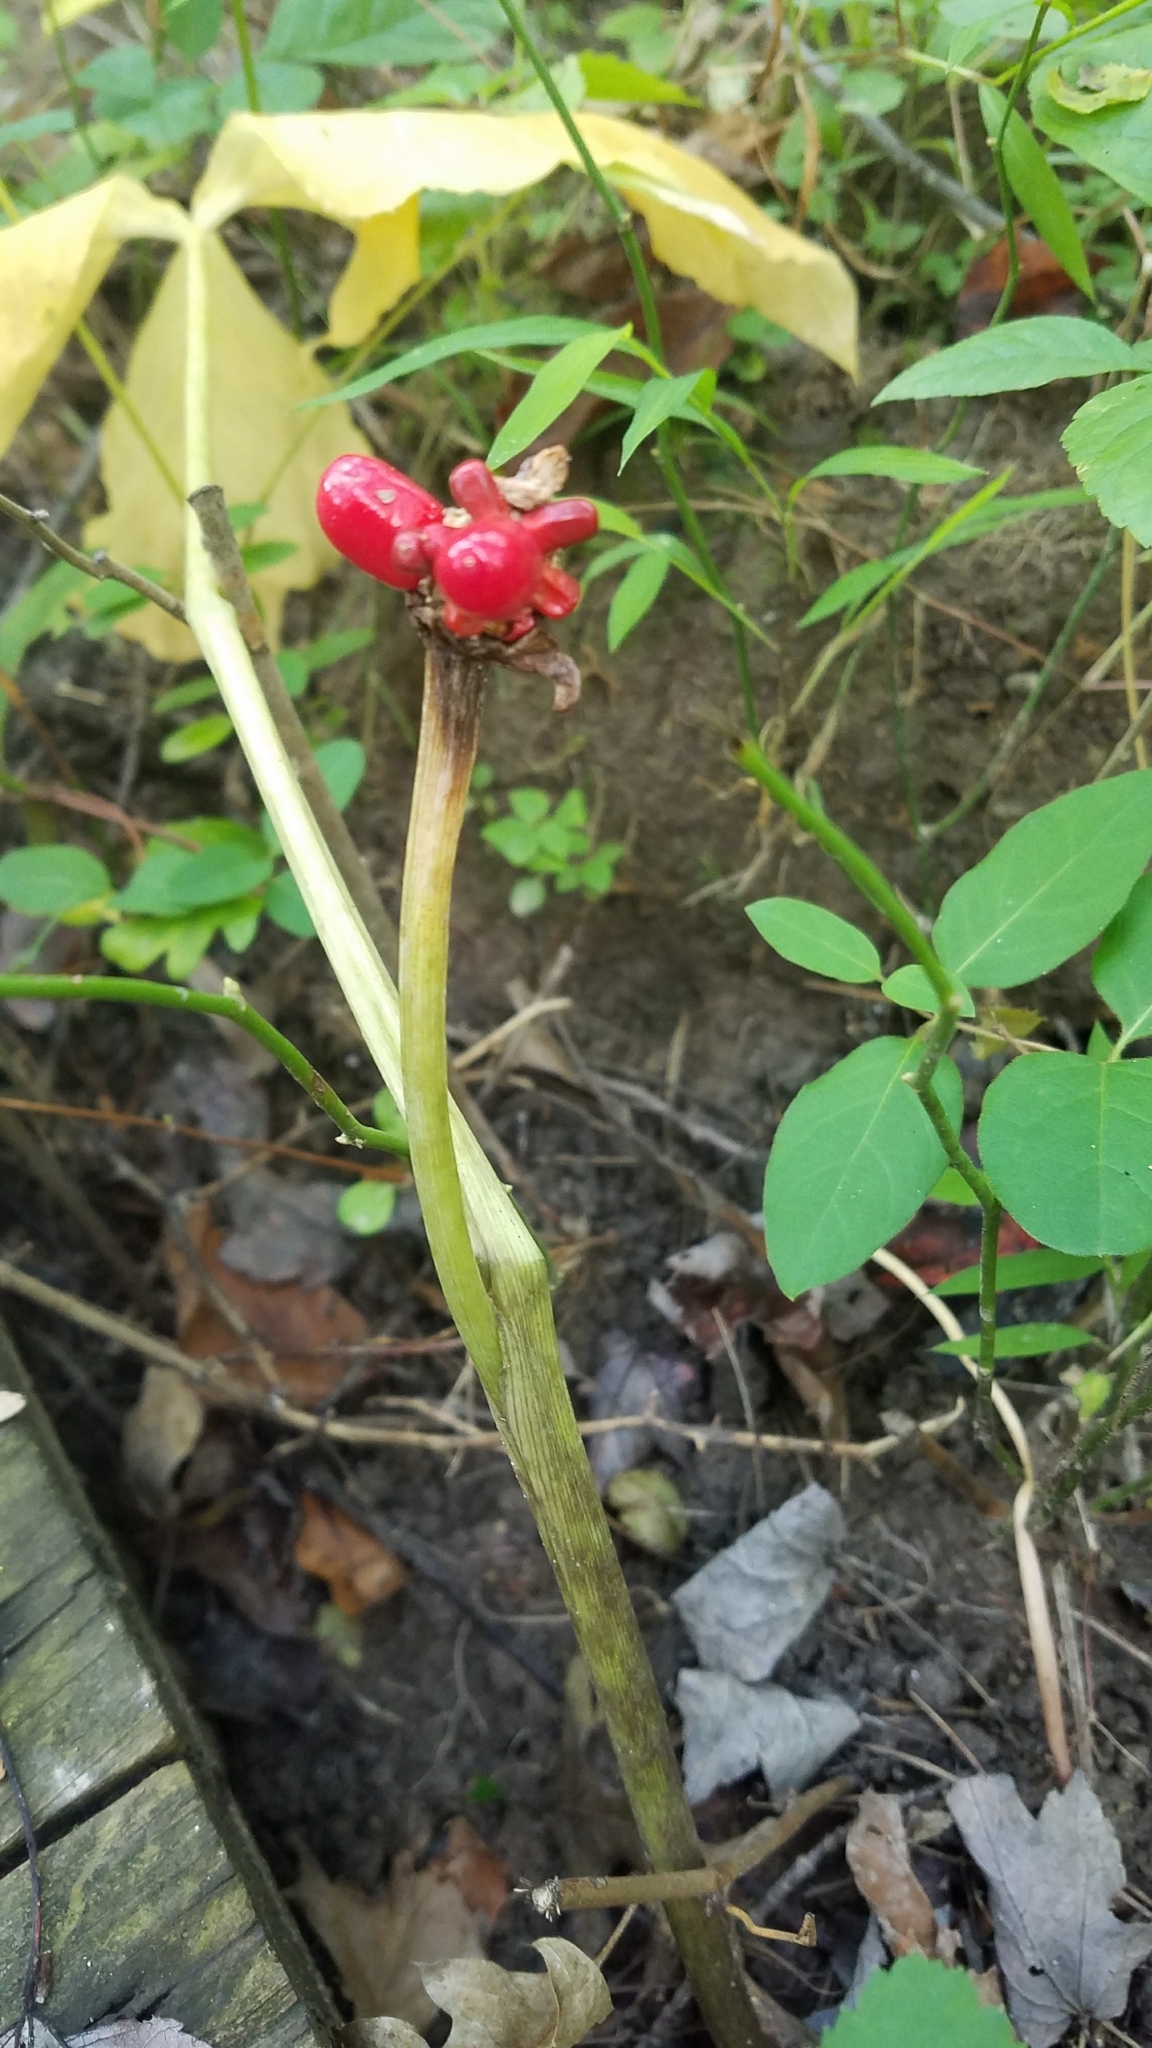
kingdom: Plantae
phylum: Tracheophyta
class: Liliopsida
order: Alismatales
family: Araceae
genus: Arisaema
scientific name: Arisaema triphyllum
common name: Jack-in-the-pulpit
